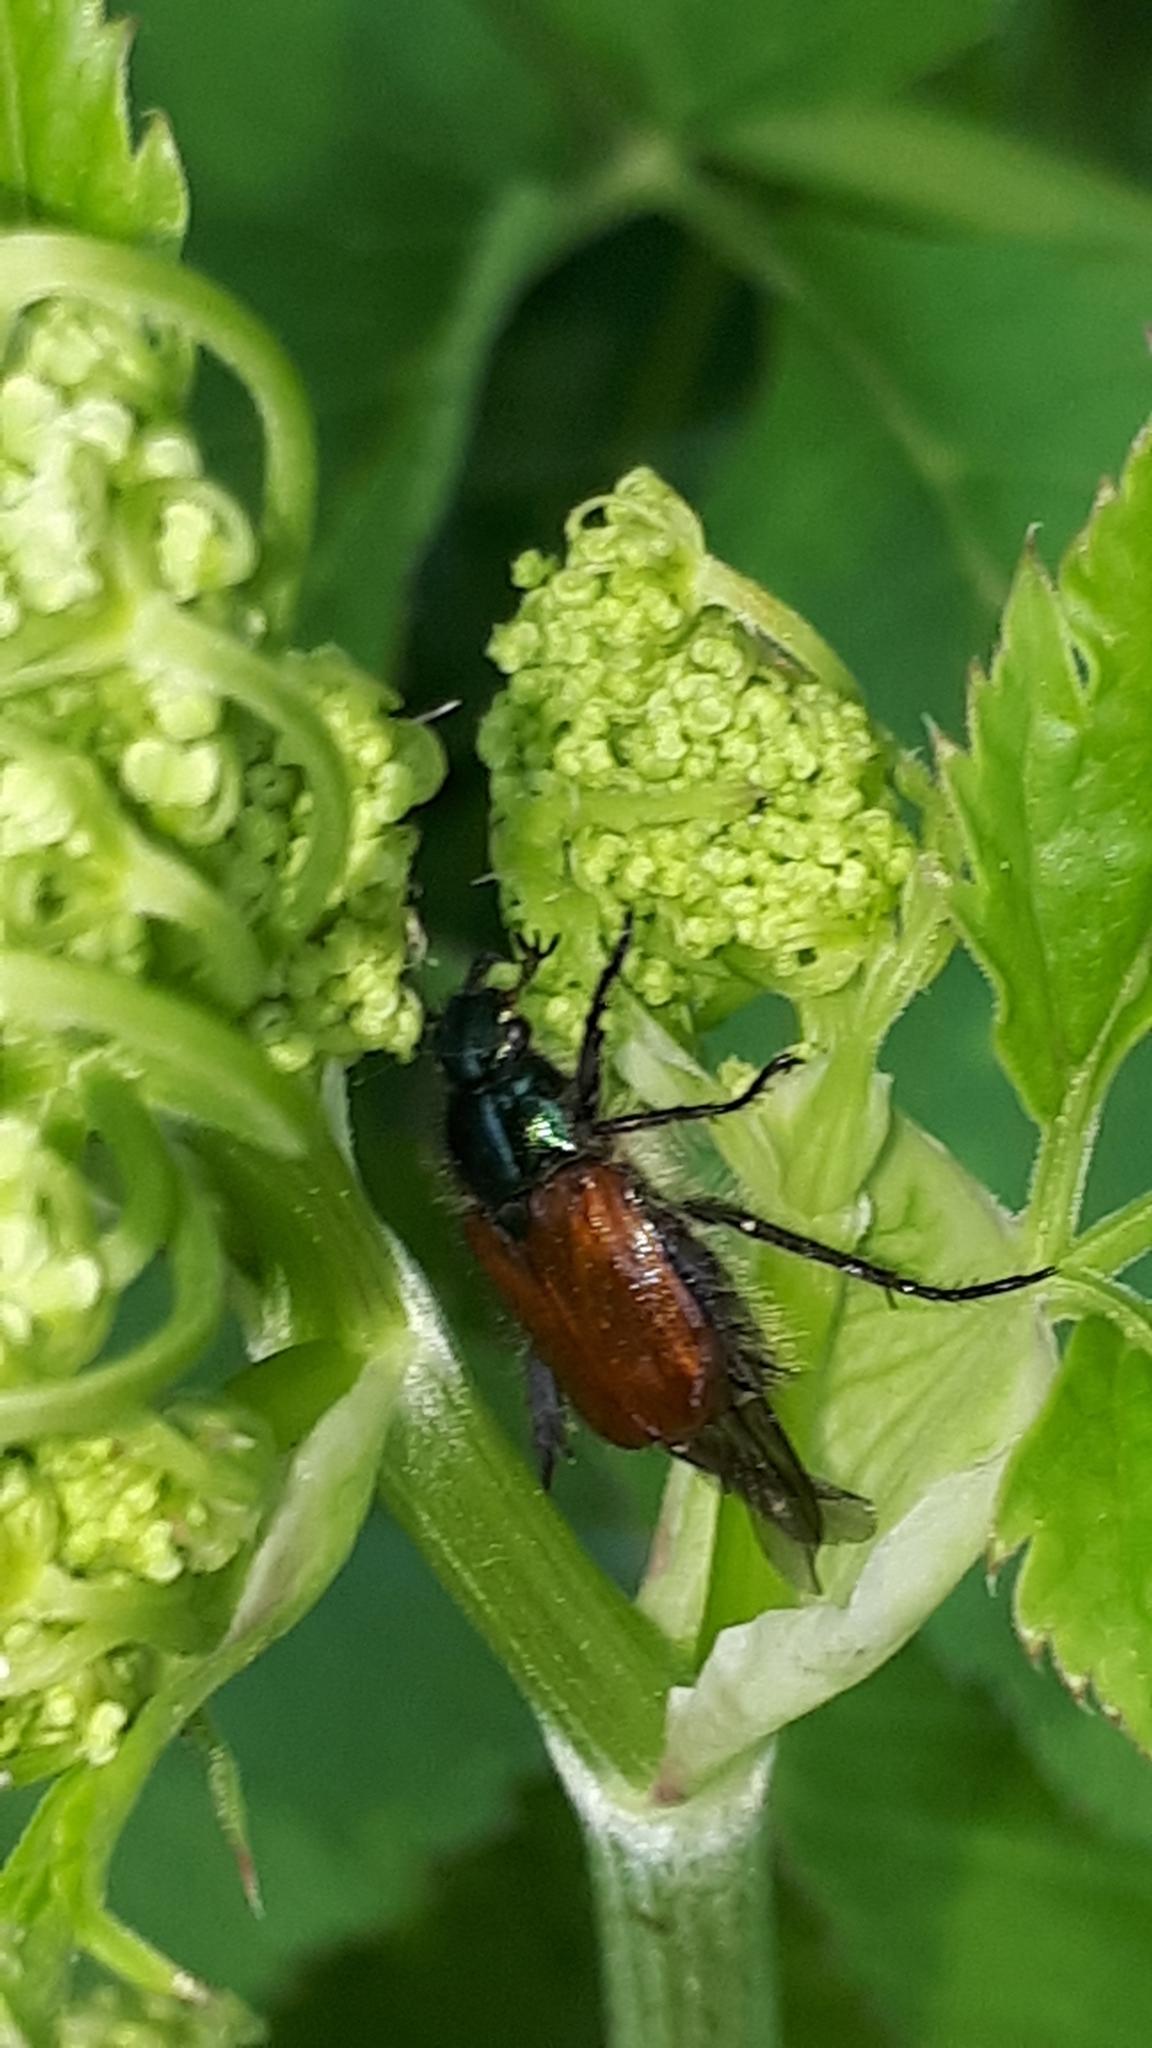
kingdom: Animalia
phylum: Arthropoda
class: Insecta
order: Coleoptera
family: Scarabaeidae
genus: Phyllopertha
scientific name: Phyllopertha horticola
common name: Garden chafer
